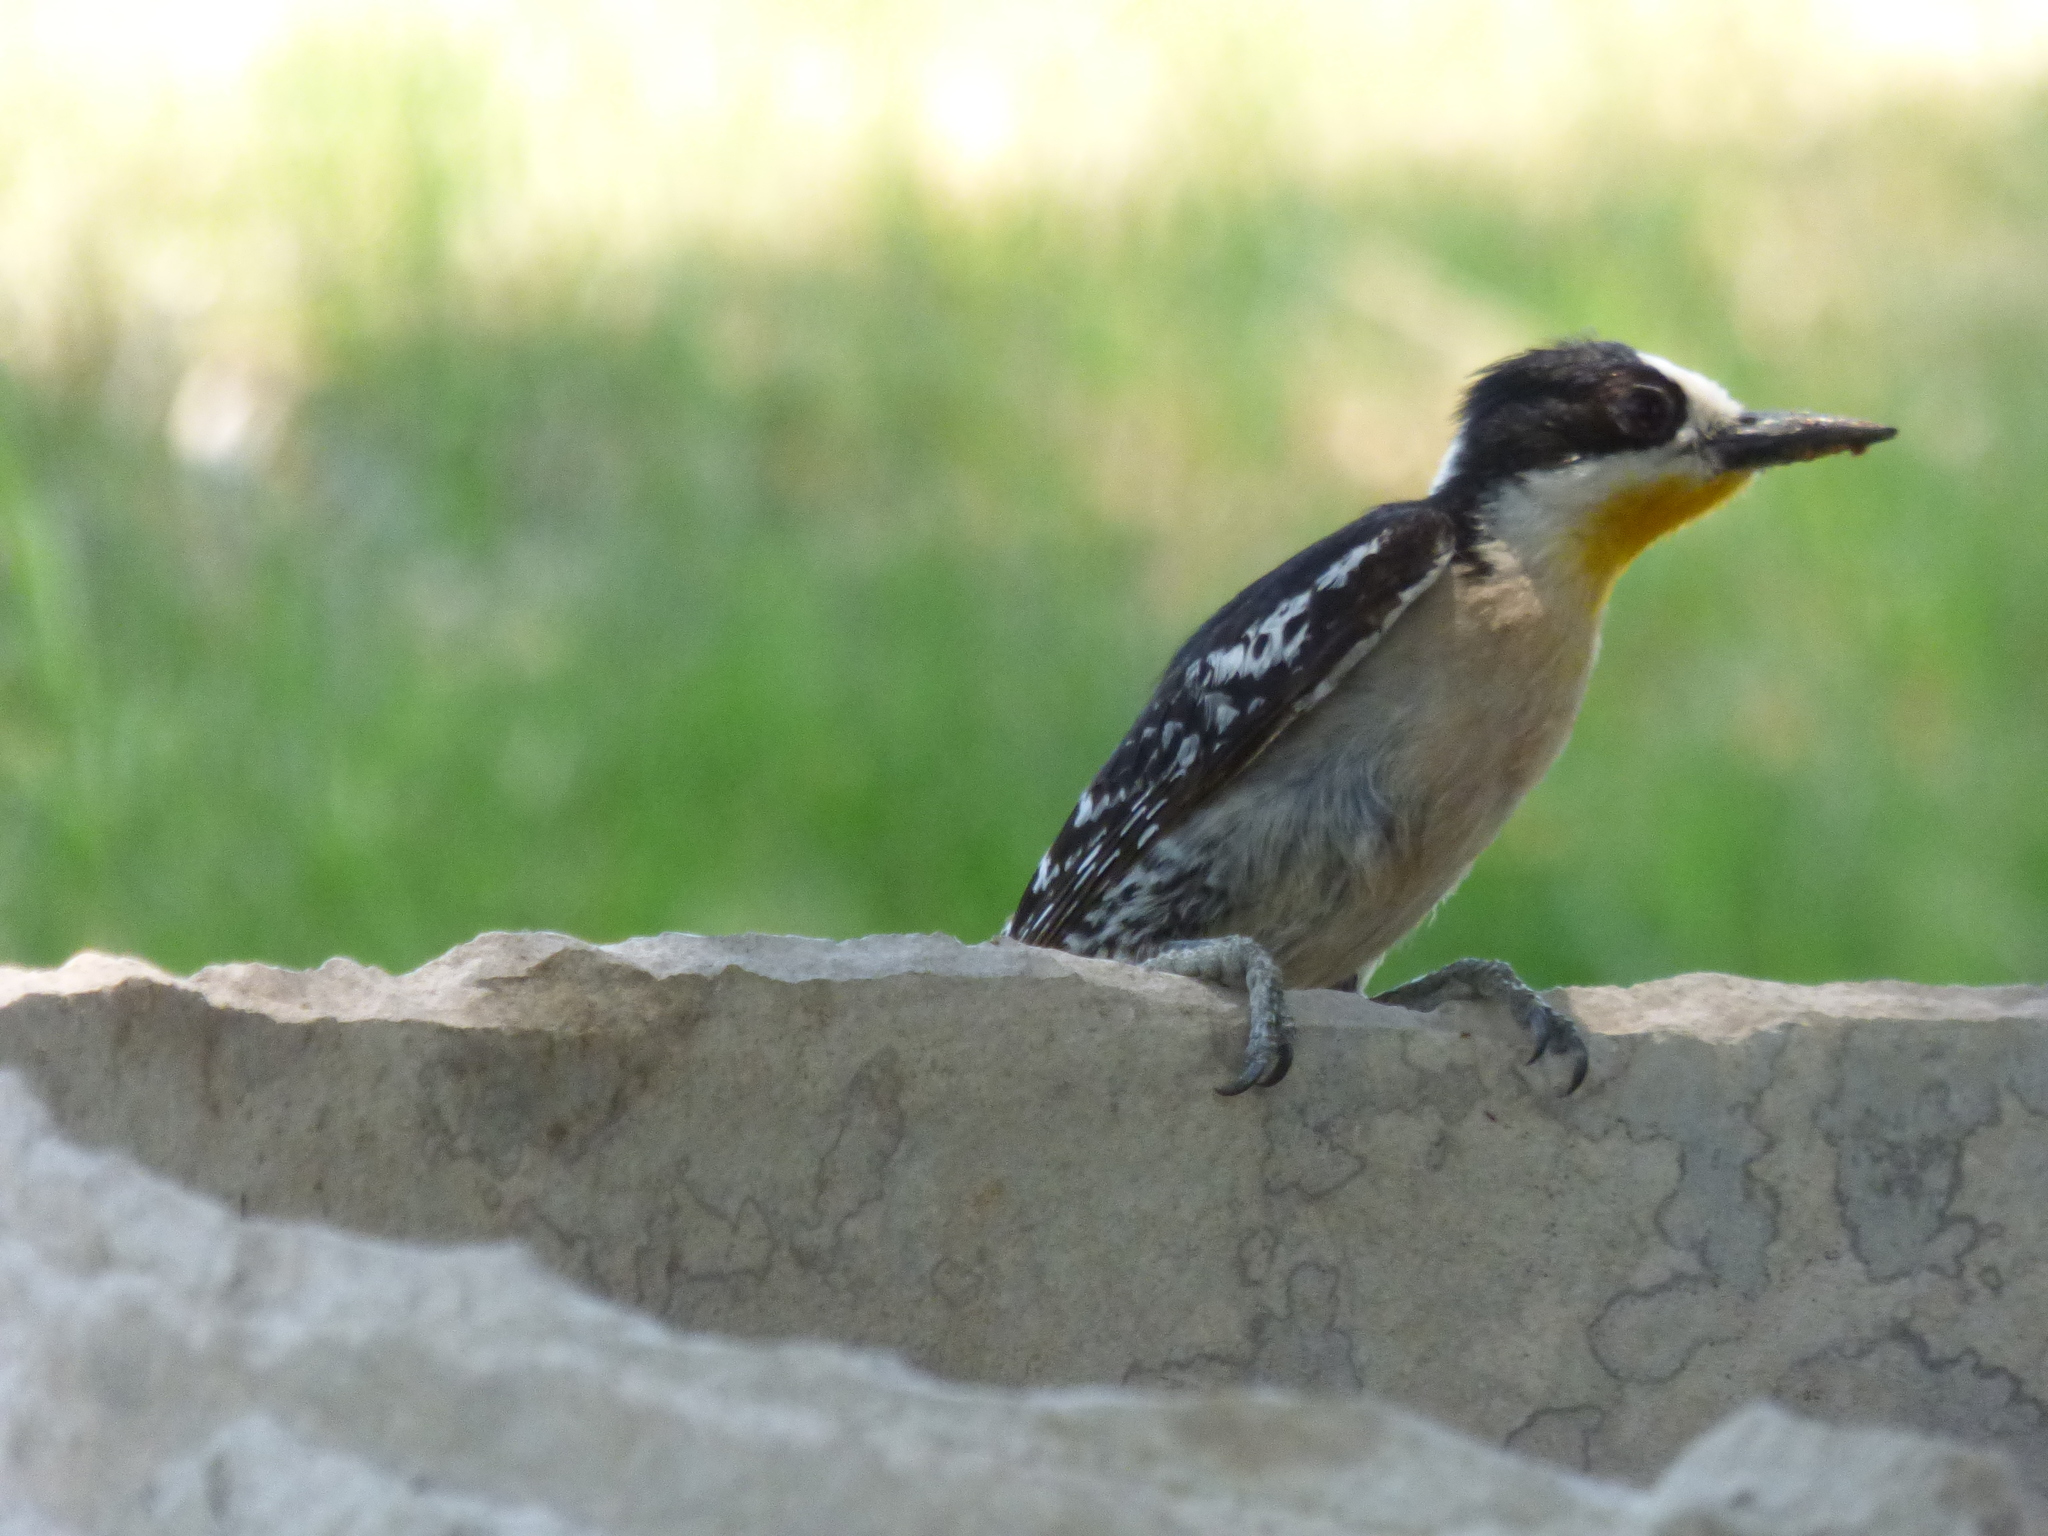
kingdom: Animalia
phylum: Chordata
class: Aves
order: Piciformes
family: Picidae
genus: Melanerpes
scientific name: Melanerpes cactorum
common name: White-fronted woodpecker
